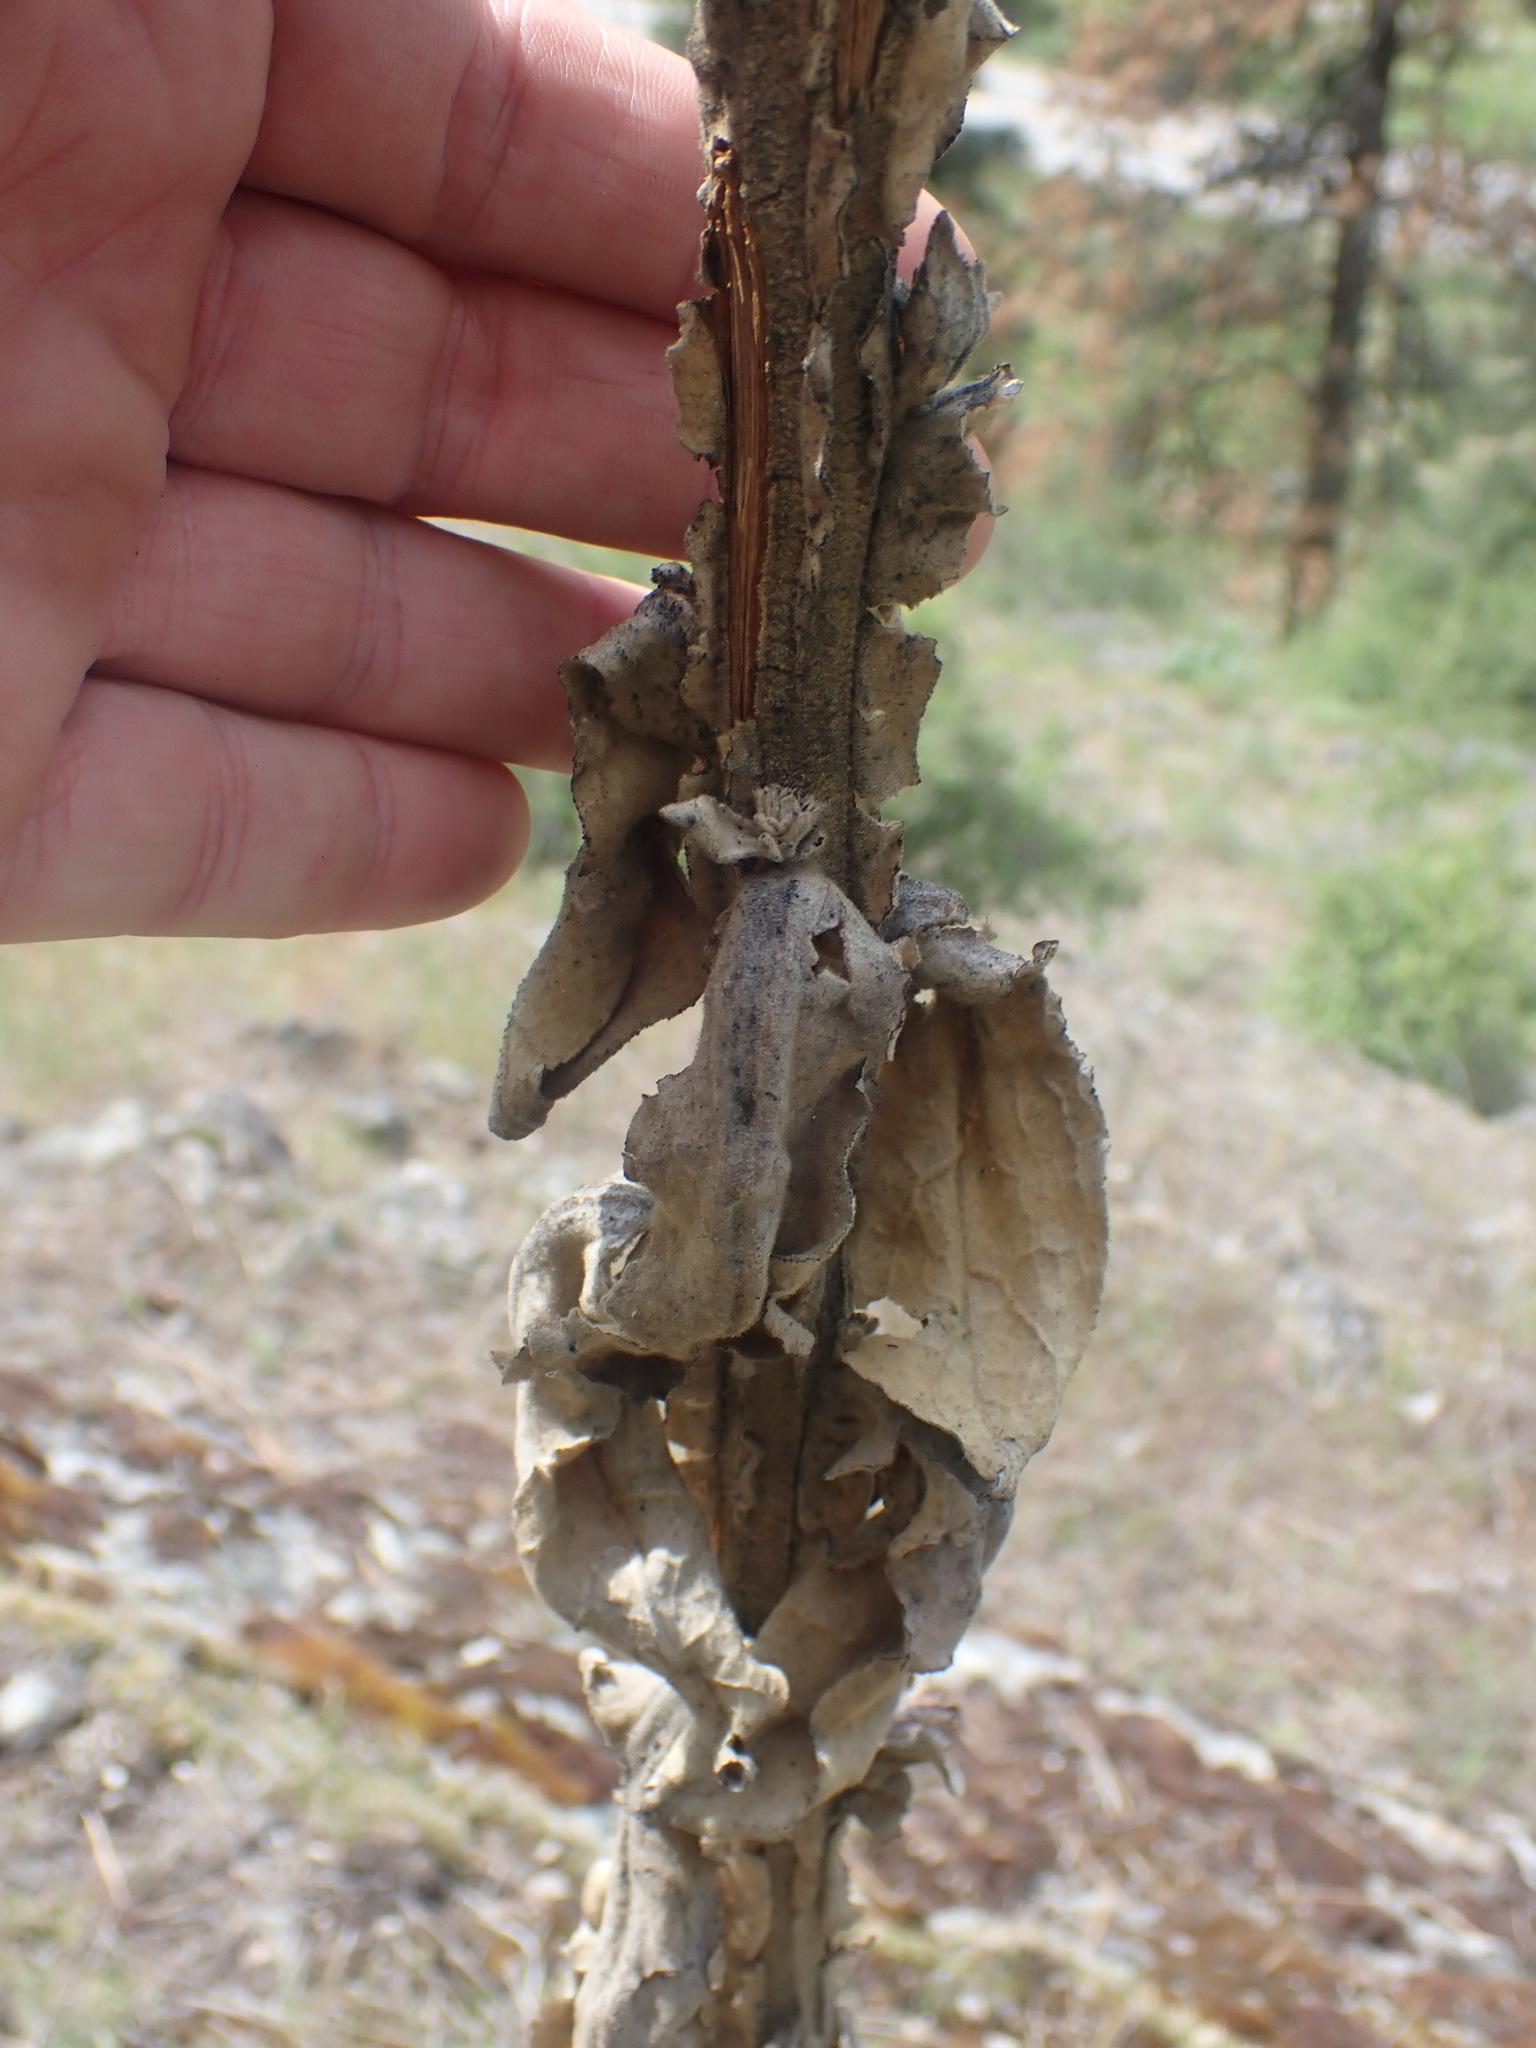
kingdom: Plantae
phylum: Tracheophyta
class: Magnoliopsida
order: Lamiales
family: Scrophulariaceae
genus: Verbascum
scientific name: Verbascum thapsus
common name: Common mullein
